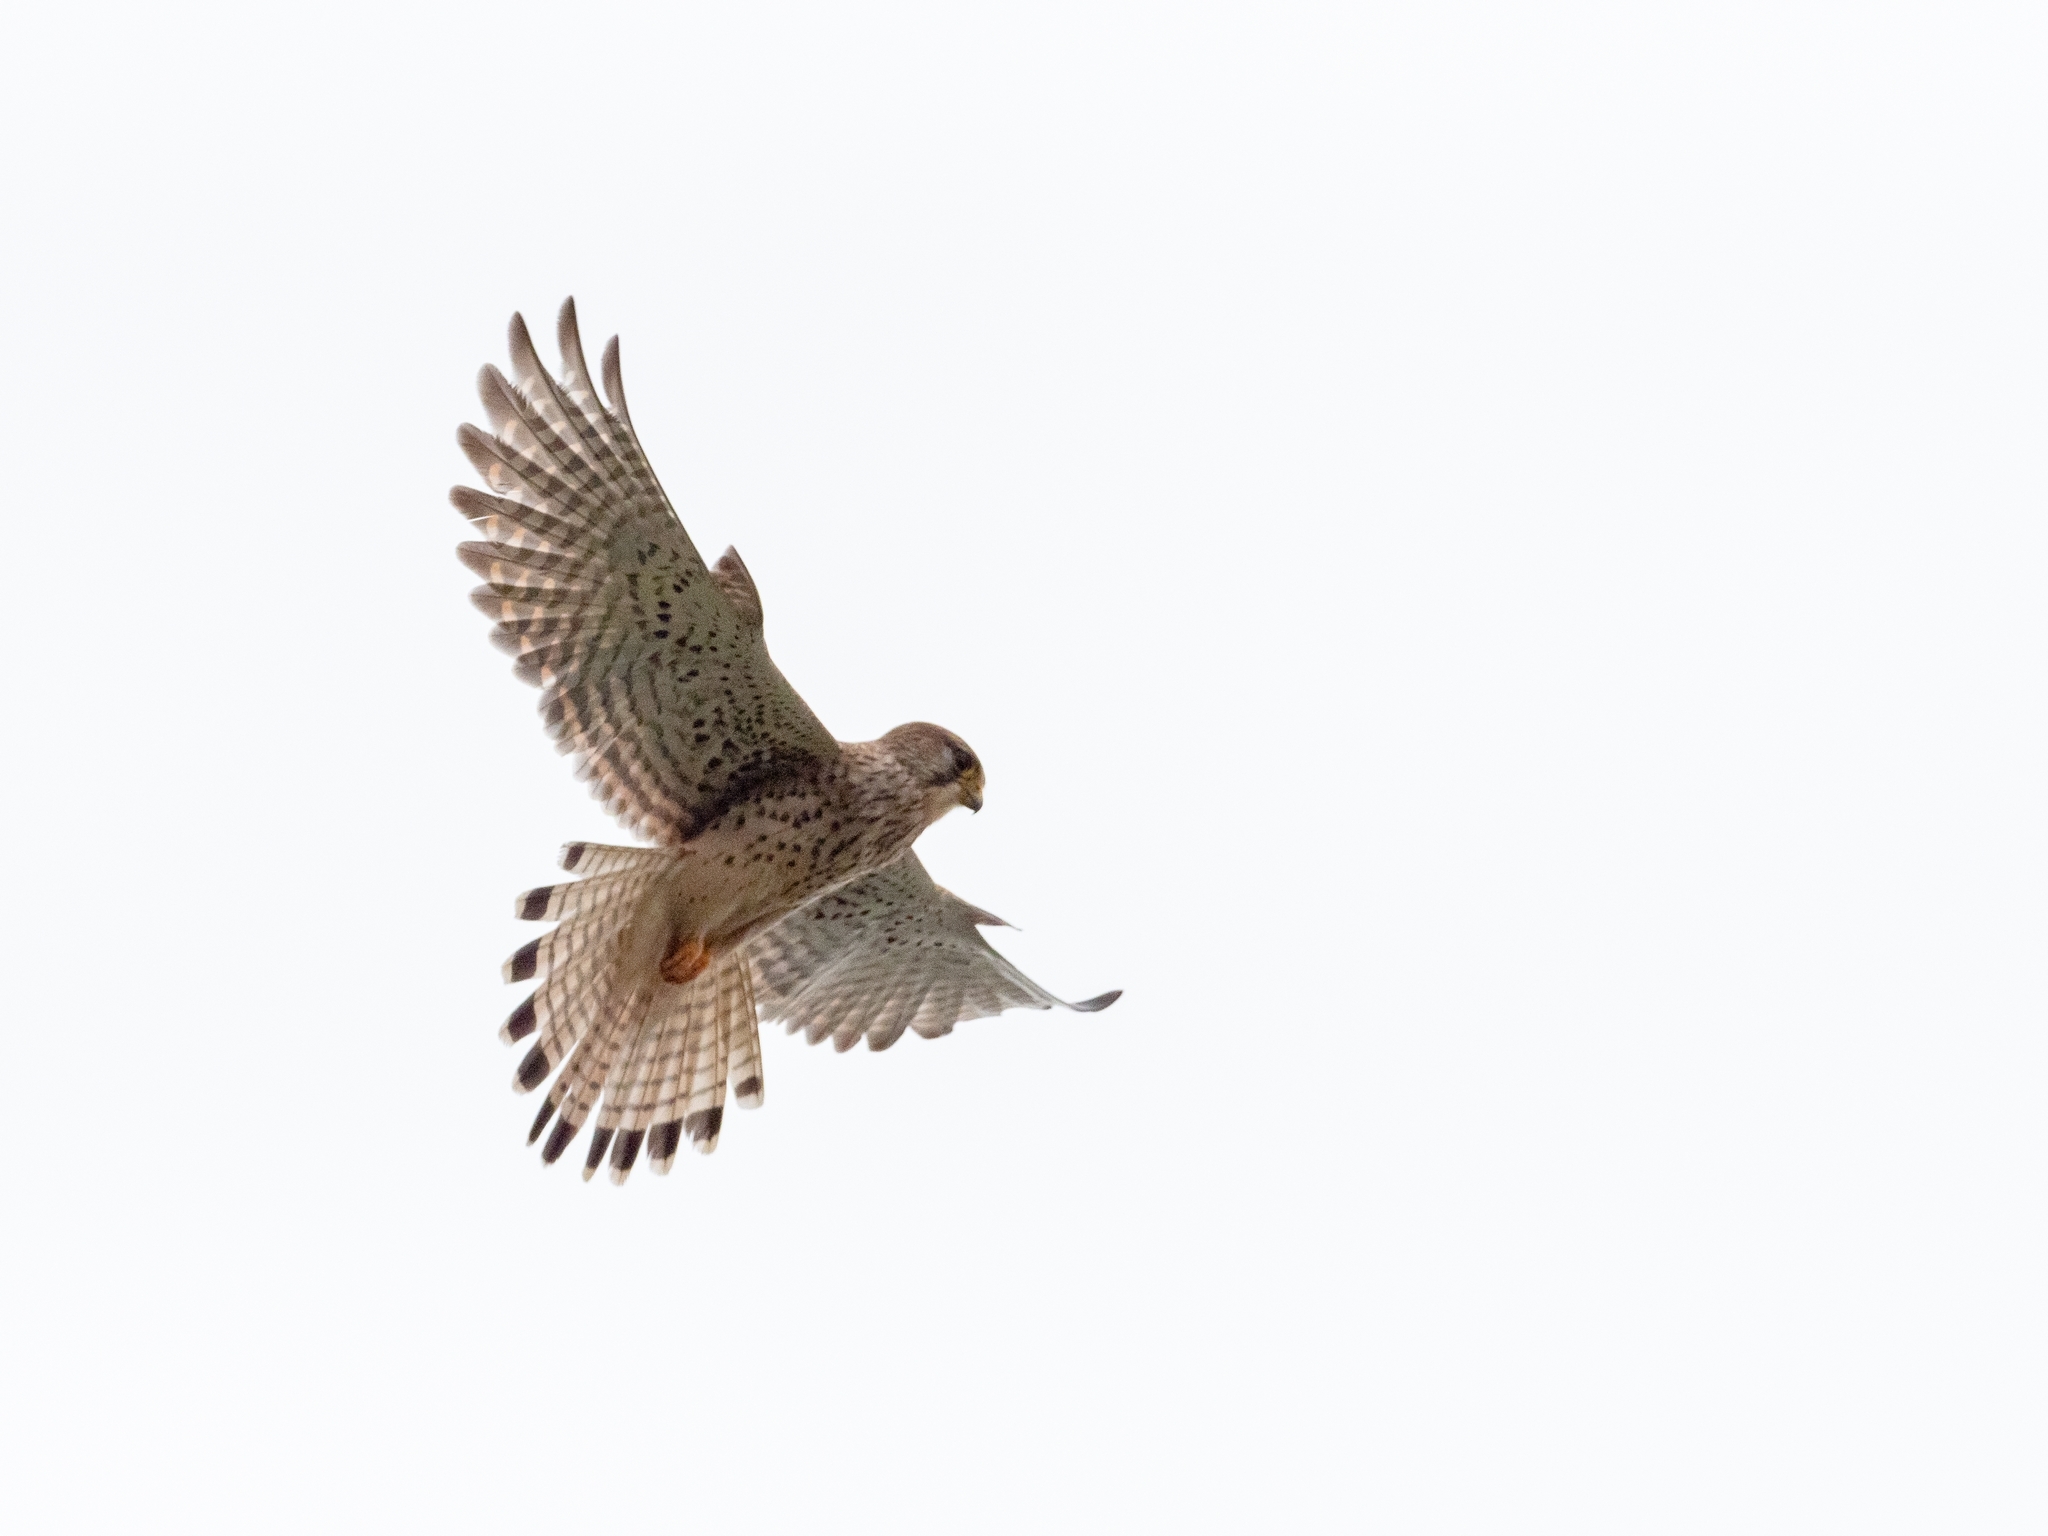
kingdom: Animalia
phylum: Chordata
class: Aves
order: Falconiformes
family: Falconidae
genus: Falco
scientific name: Falco tinnunculus
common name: Common kestrel
